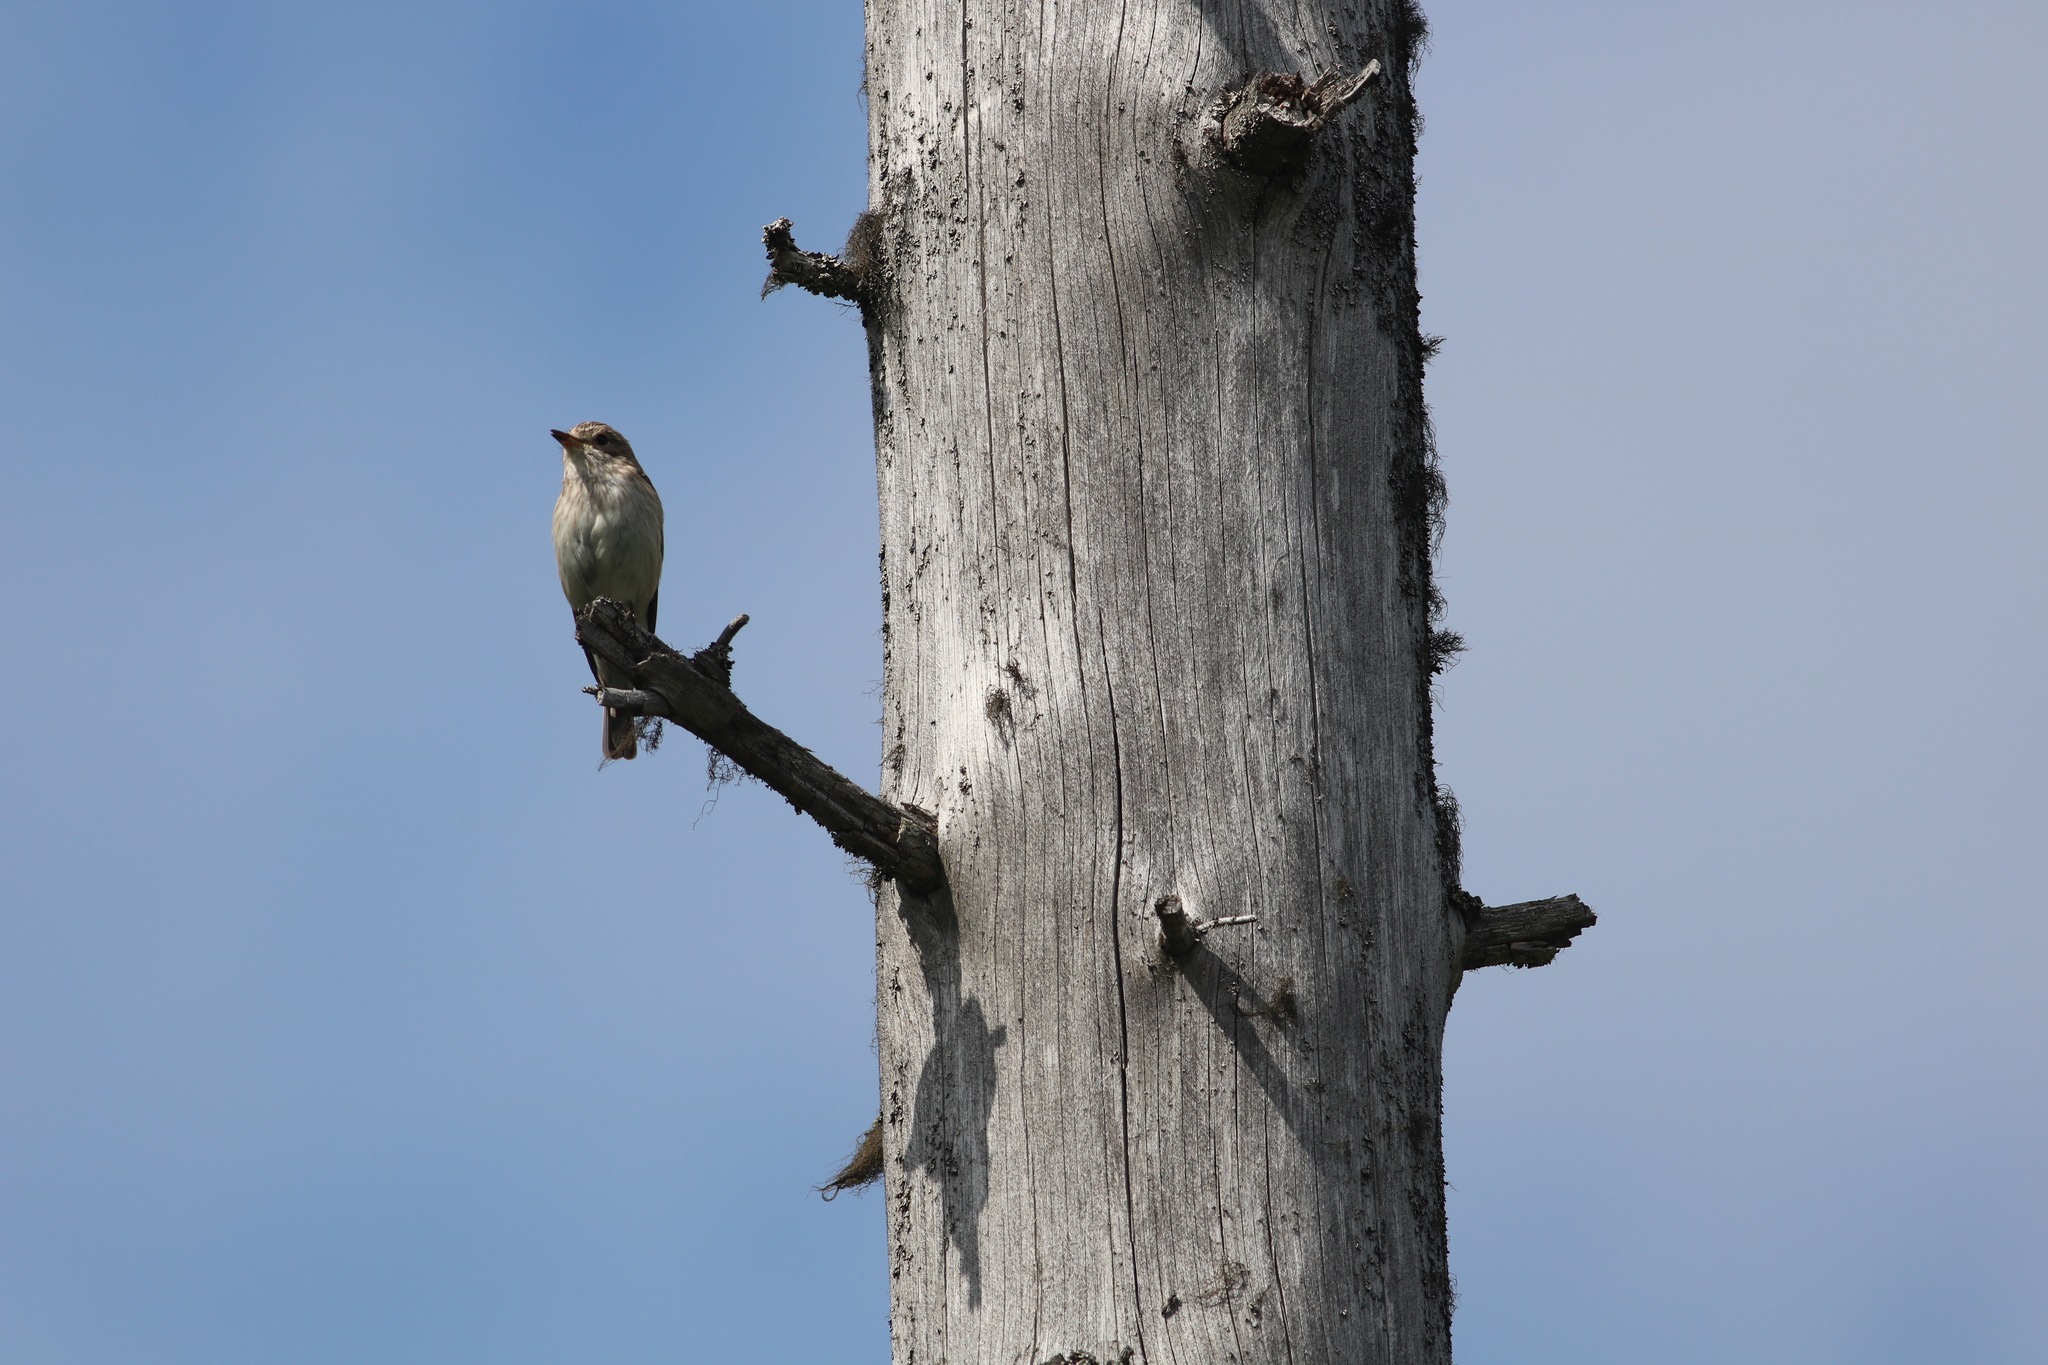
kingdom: Animalia
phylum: Chordata
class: Aves
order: Passeriformes
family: Muscicapidae
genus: Muscicapa
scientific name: Muscicapa striata
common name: Spotted flycatcher
